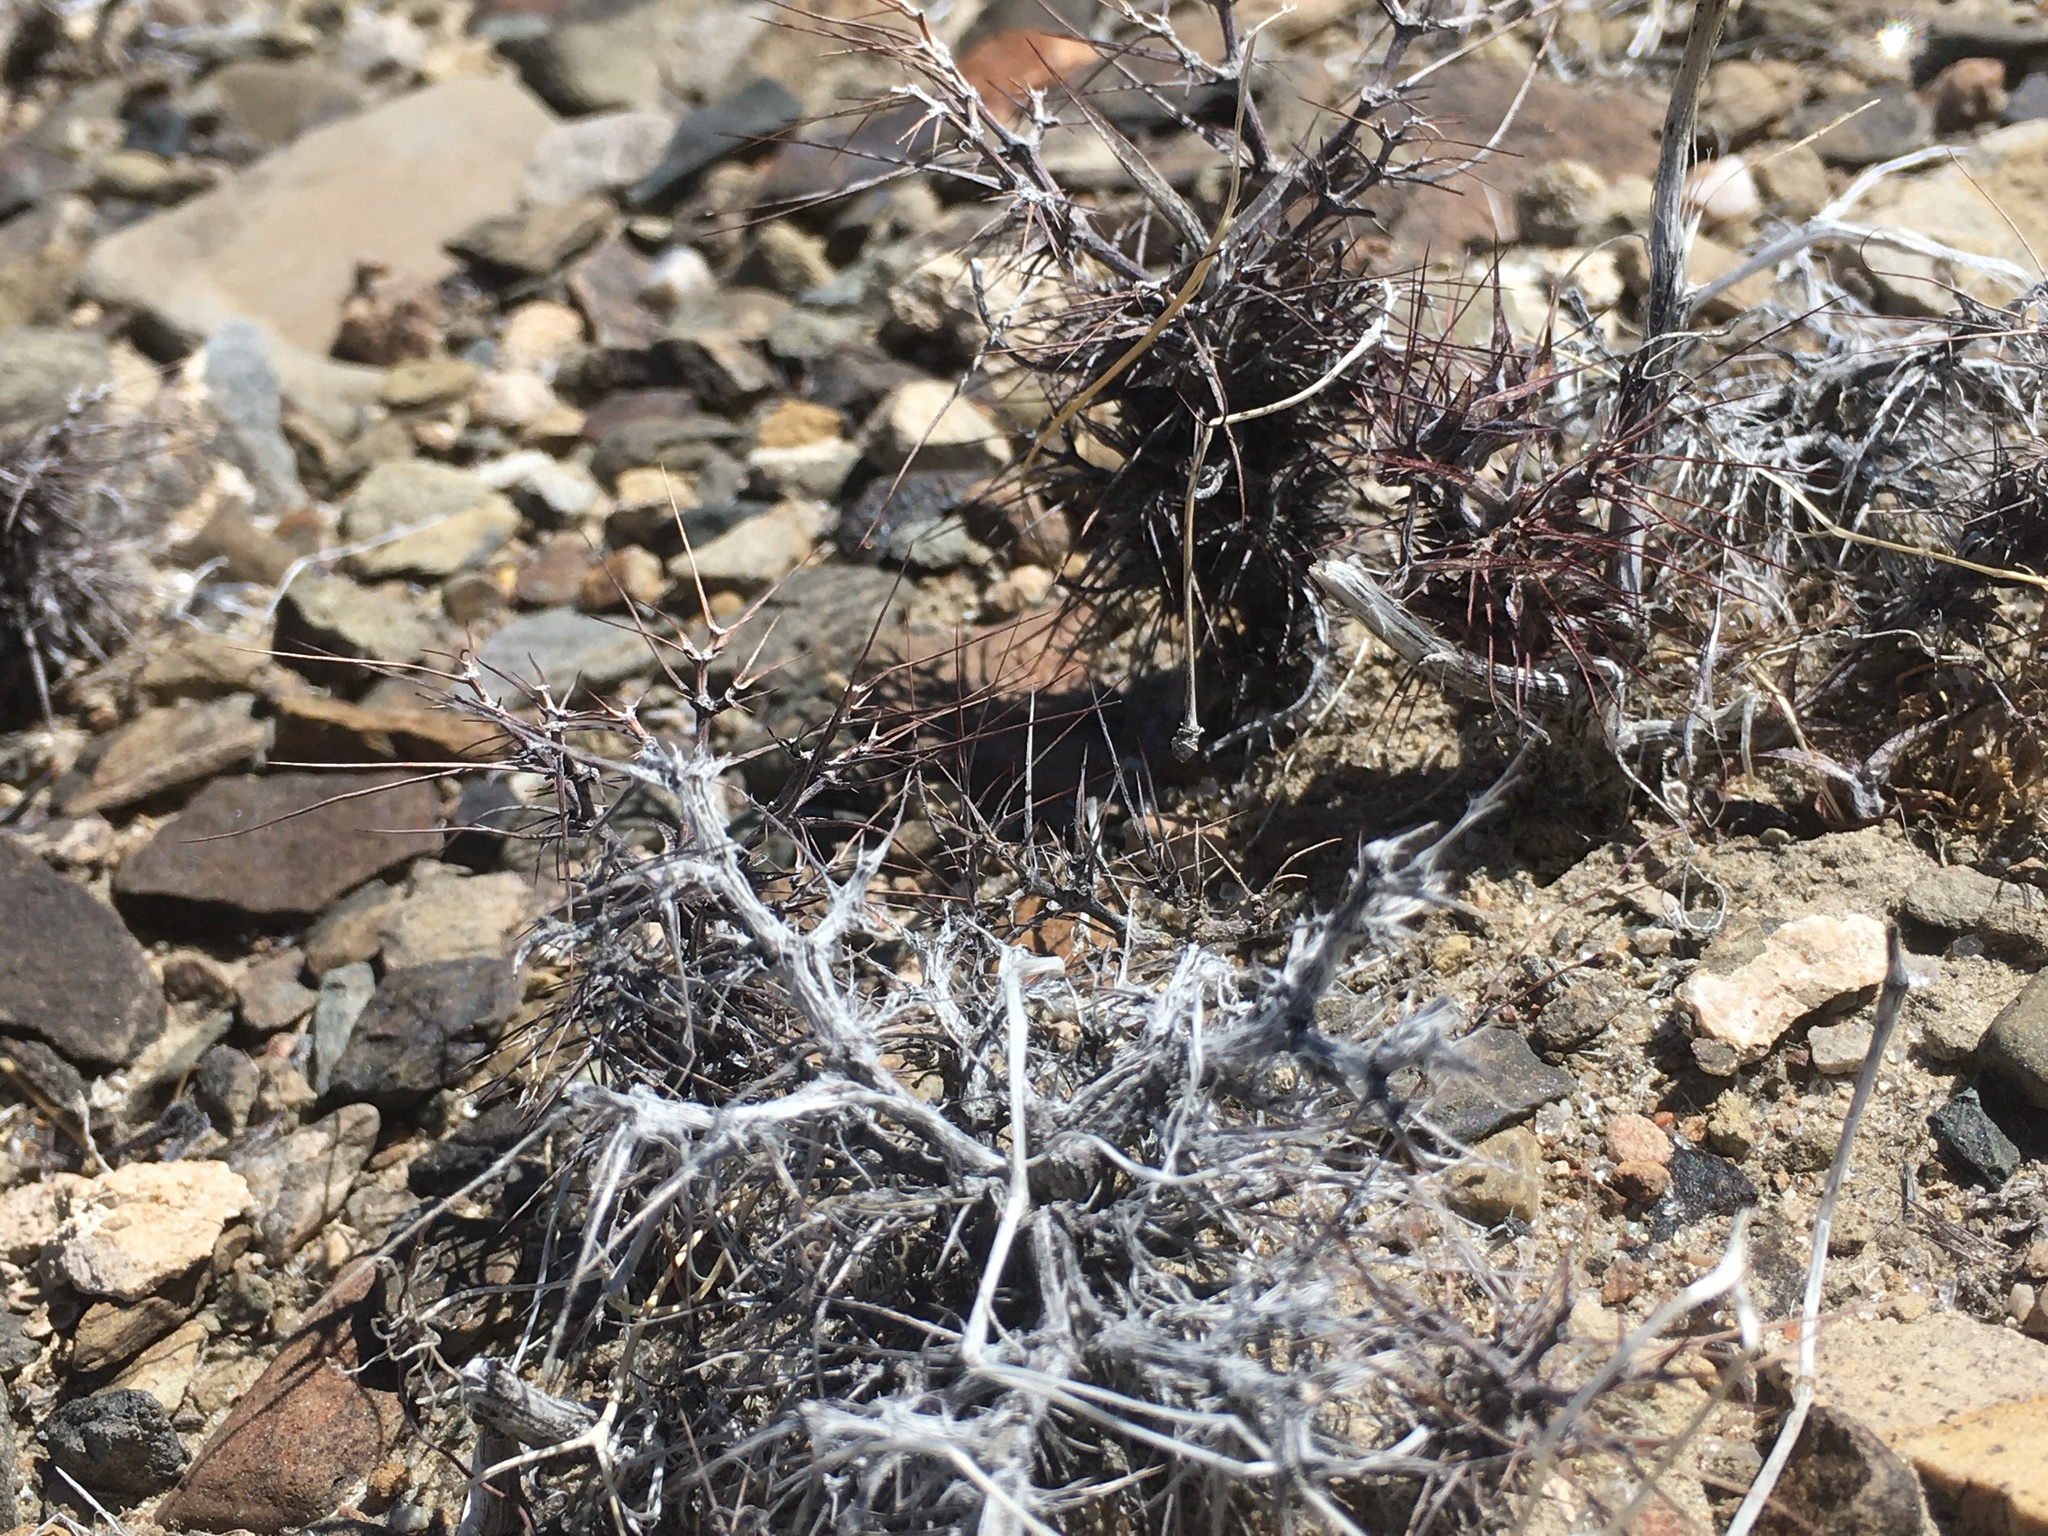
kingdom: Plantae
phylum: Tracheophyta
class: Magnoliopsida
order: Caryophyllales
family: Polygonaceae
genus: Chorizanthe
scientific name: Chorizanthe rigida
